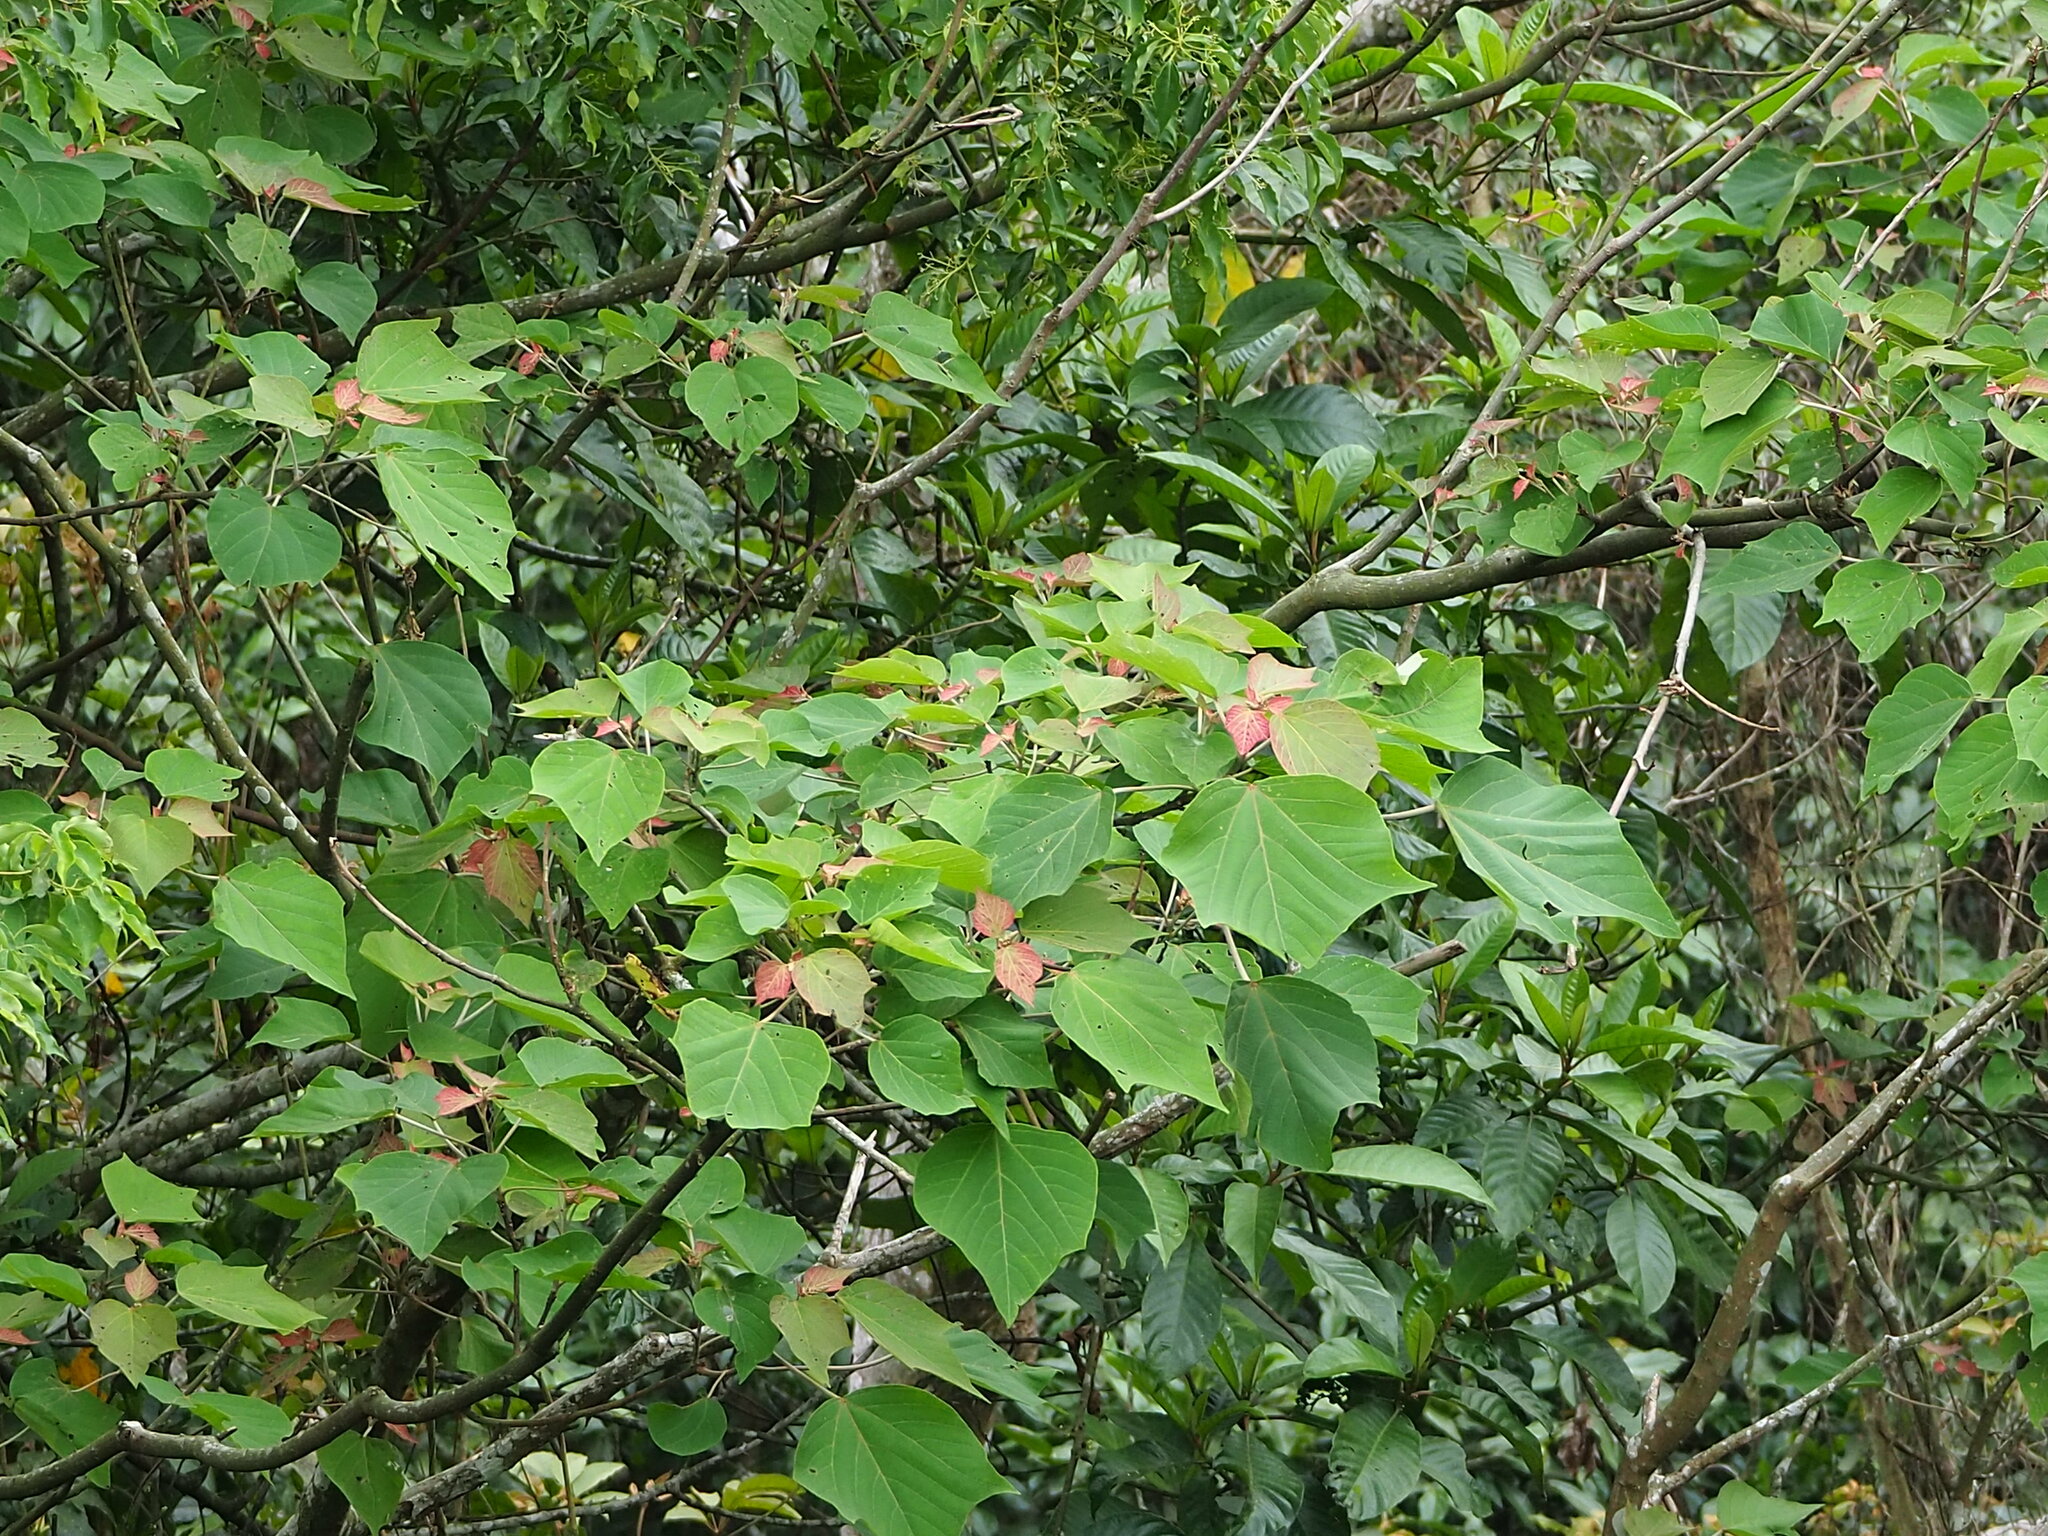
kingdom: Plantae
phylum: Tracheophyta
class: Magnoliopsida
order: Malpighiales
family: Euphorbiaceae
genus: Mallotus
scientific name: Mallotus japonicus
